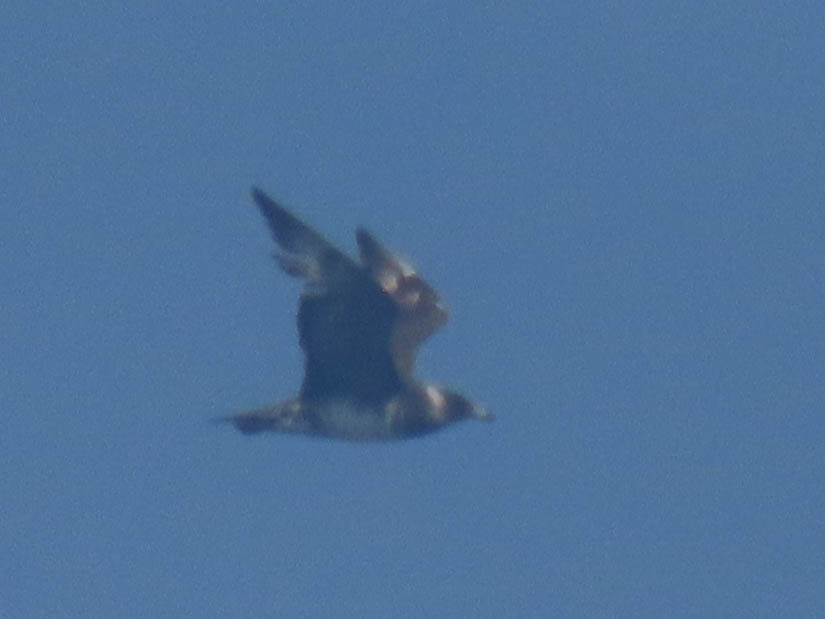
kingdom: Animalia
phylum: Chordata
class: Aves
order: Charadriiformes
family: Stercorariidae
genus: Stercorarius
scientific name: Stercorarius pomarinus
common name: Pomarine jaeger
